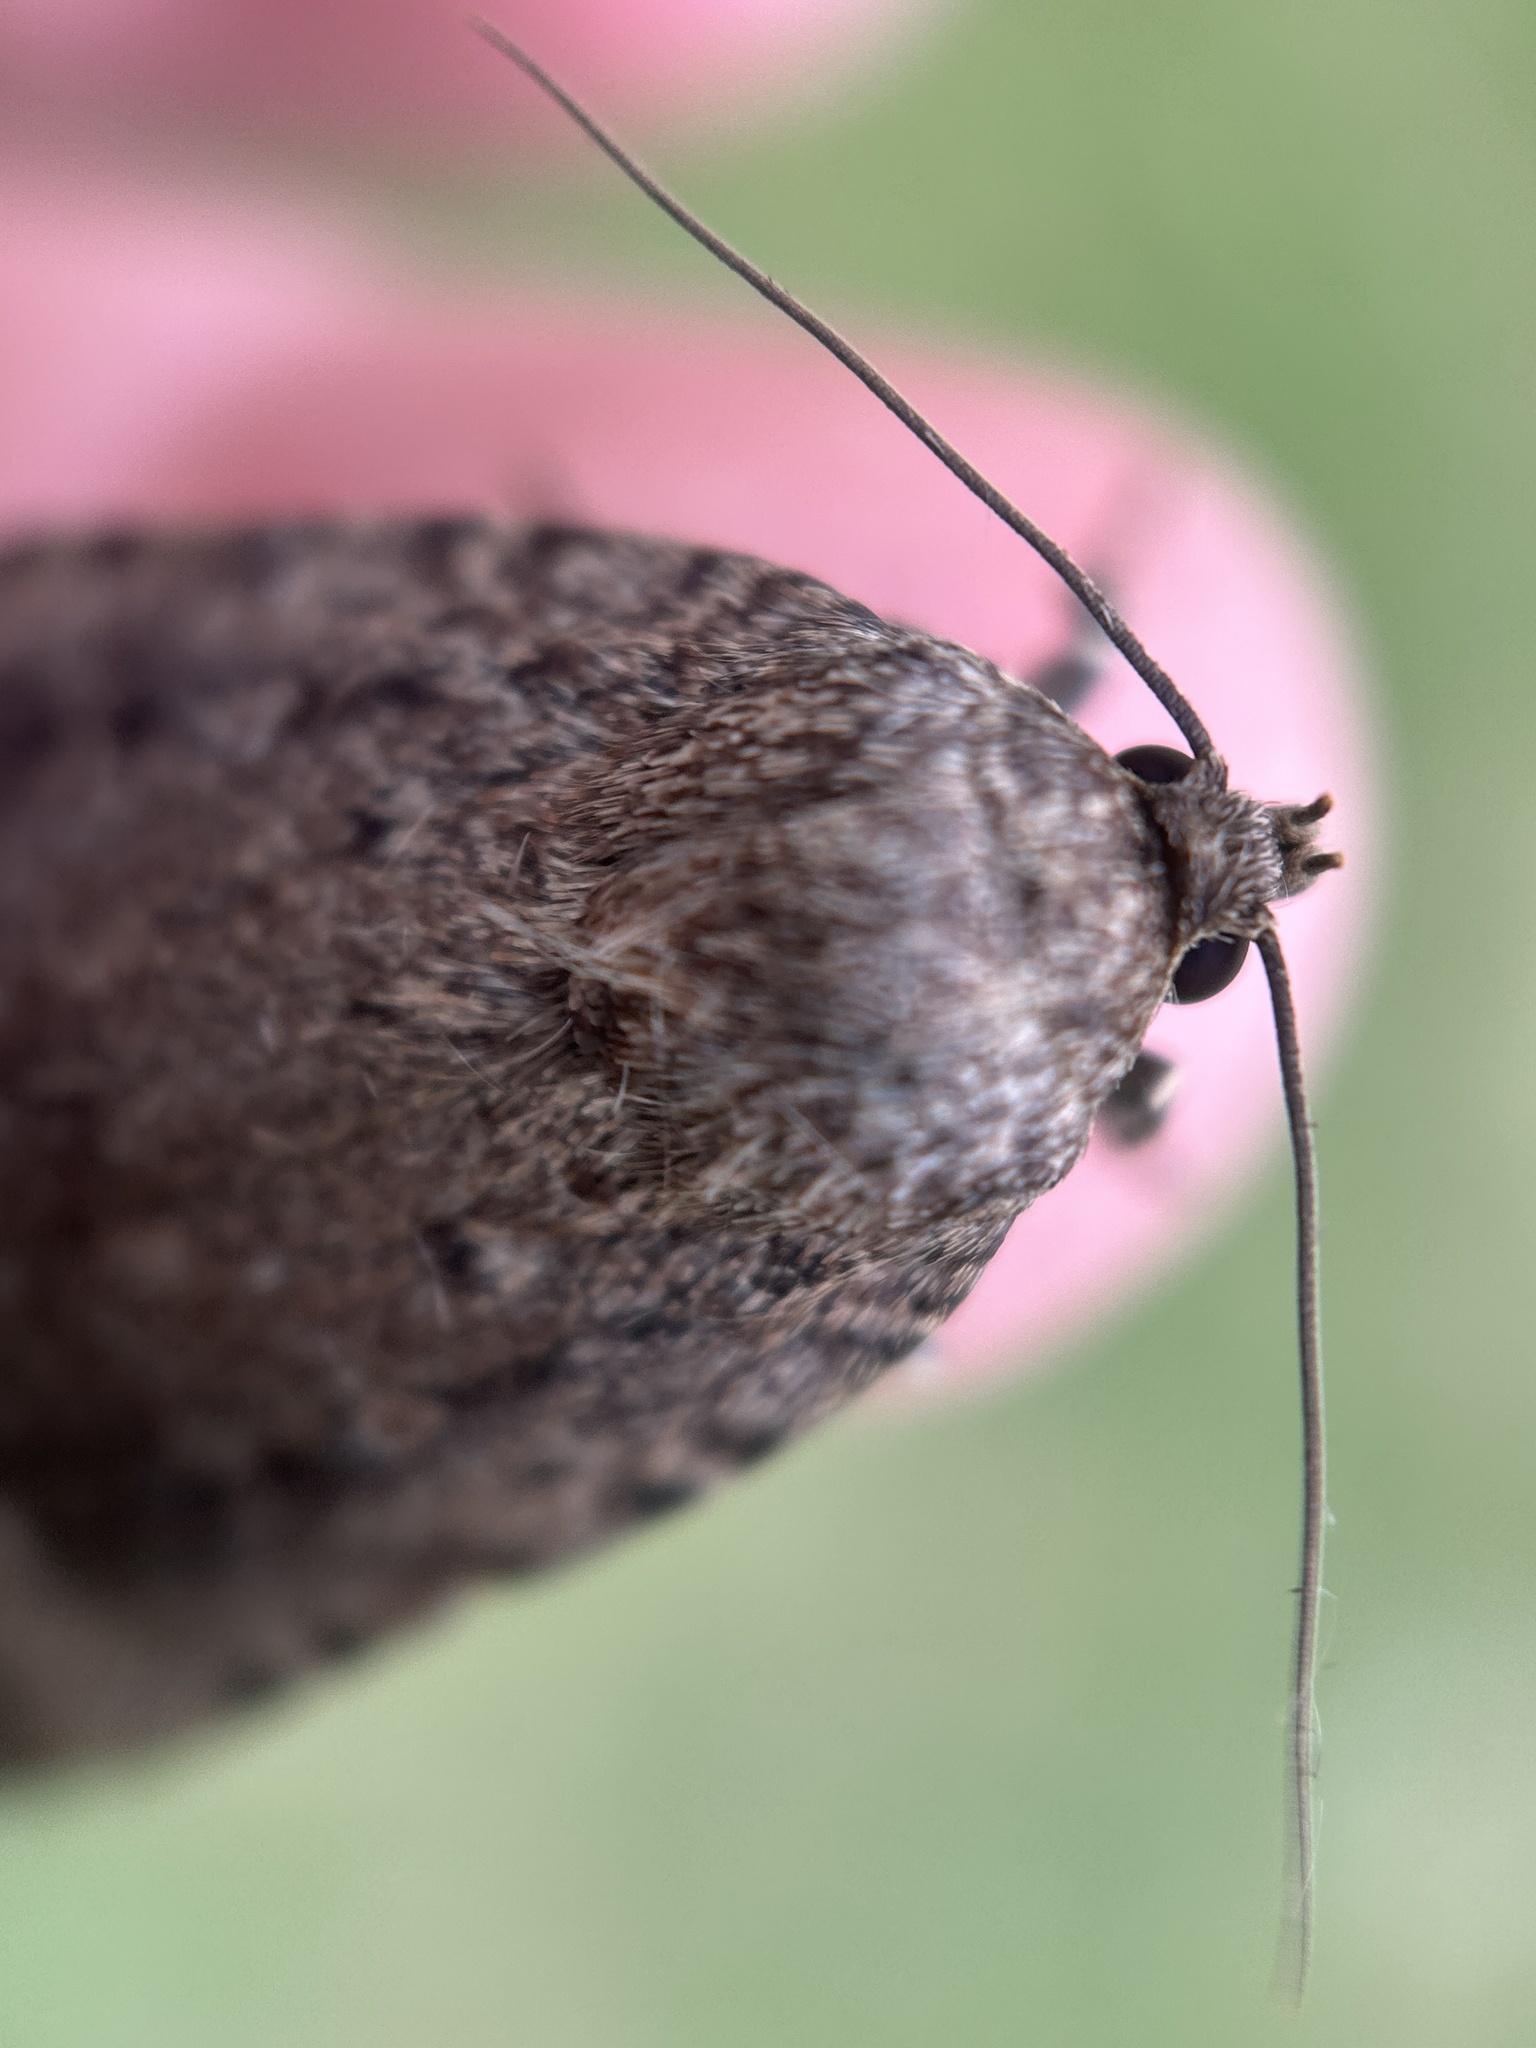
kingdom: Animalia
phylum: Arthropoda
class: Insecta
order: Lepidoptera
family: Noctuidae
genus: Amphipyra
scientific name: Amphipyra pyramidoides
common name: American copper underwing
